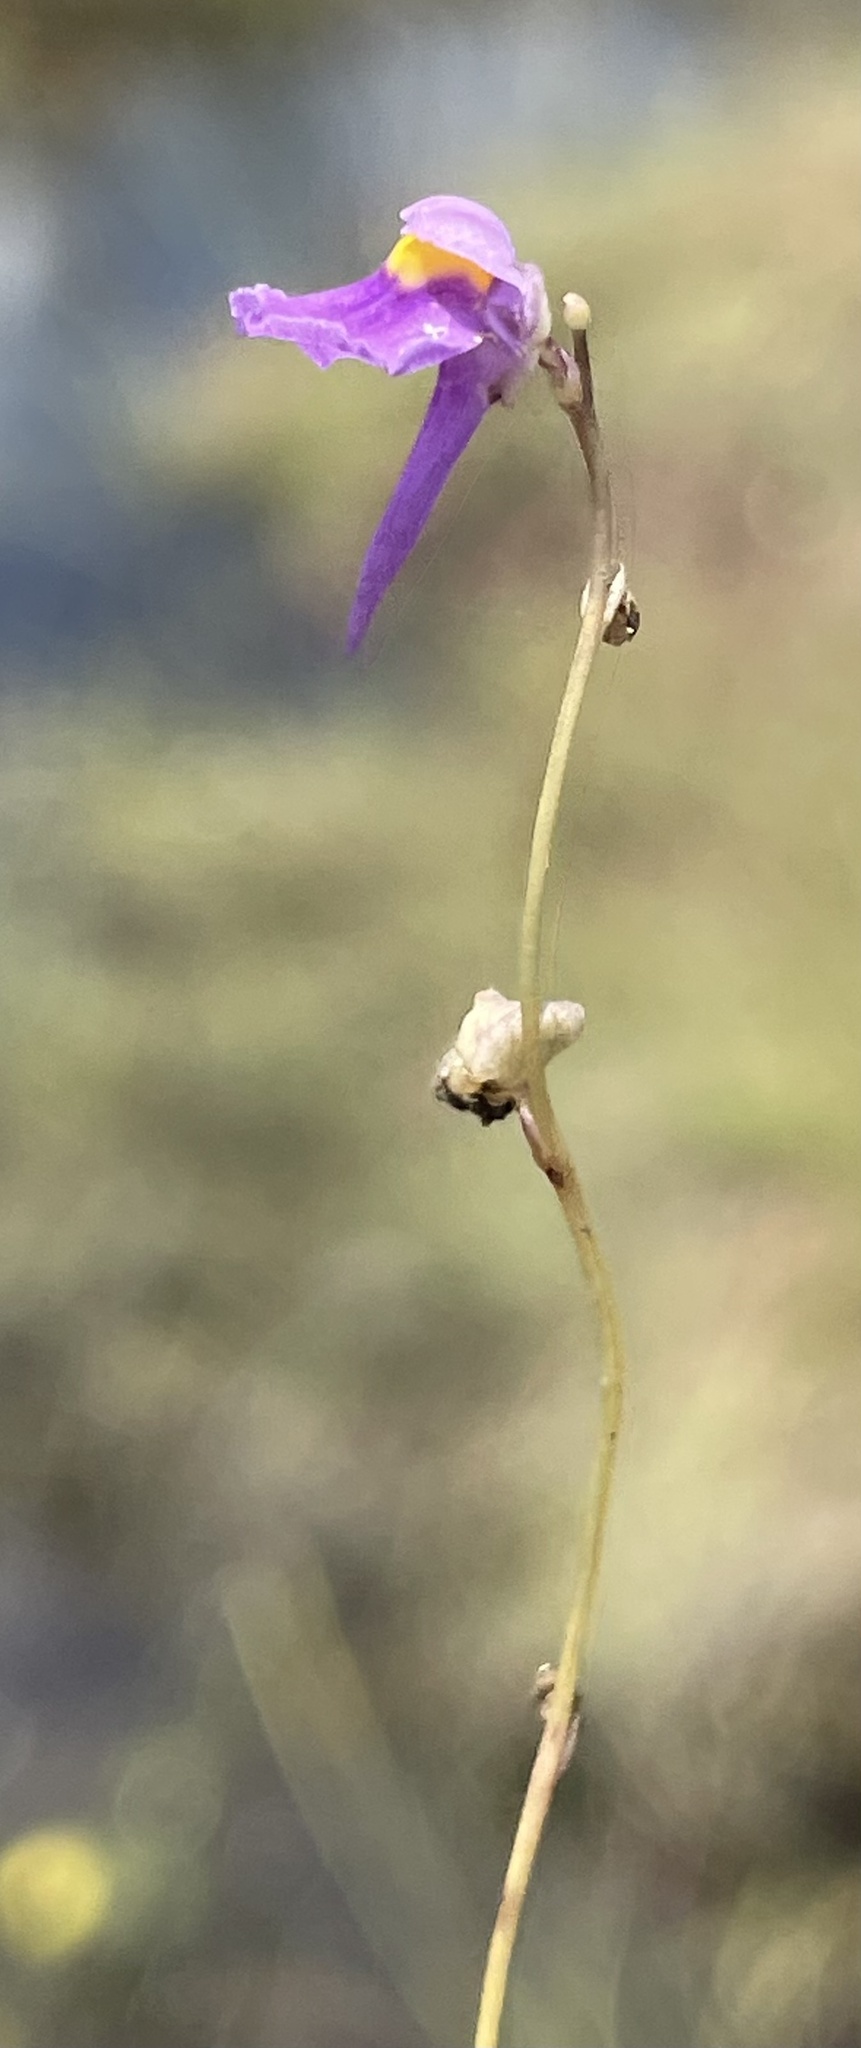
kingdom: Plantae
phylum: Tracheophyta
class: Magnoliopsida
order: Lamiales
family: Lentibulariaceae
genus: Utricularia
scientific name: Utricularia welwitschii
